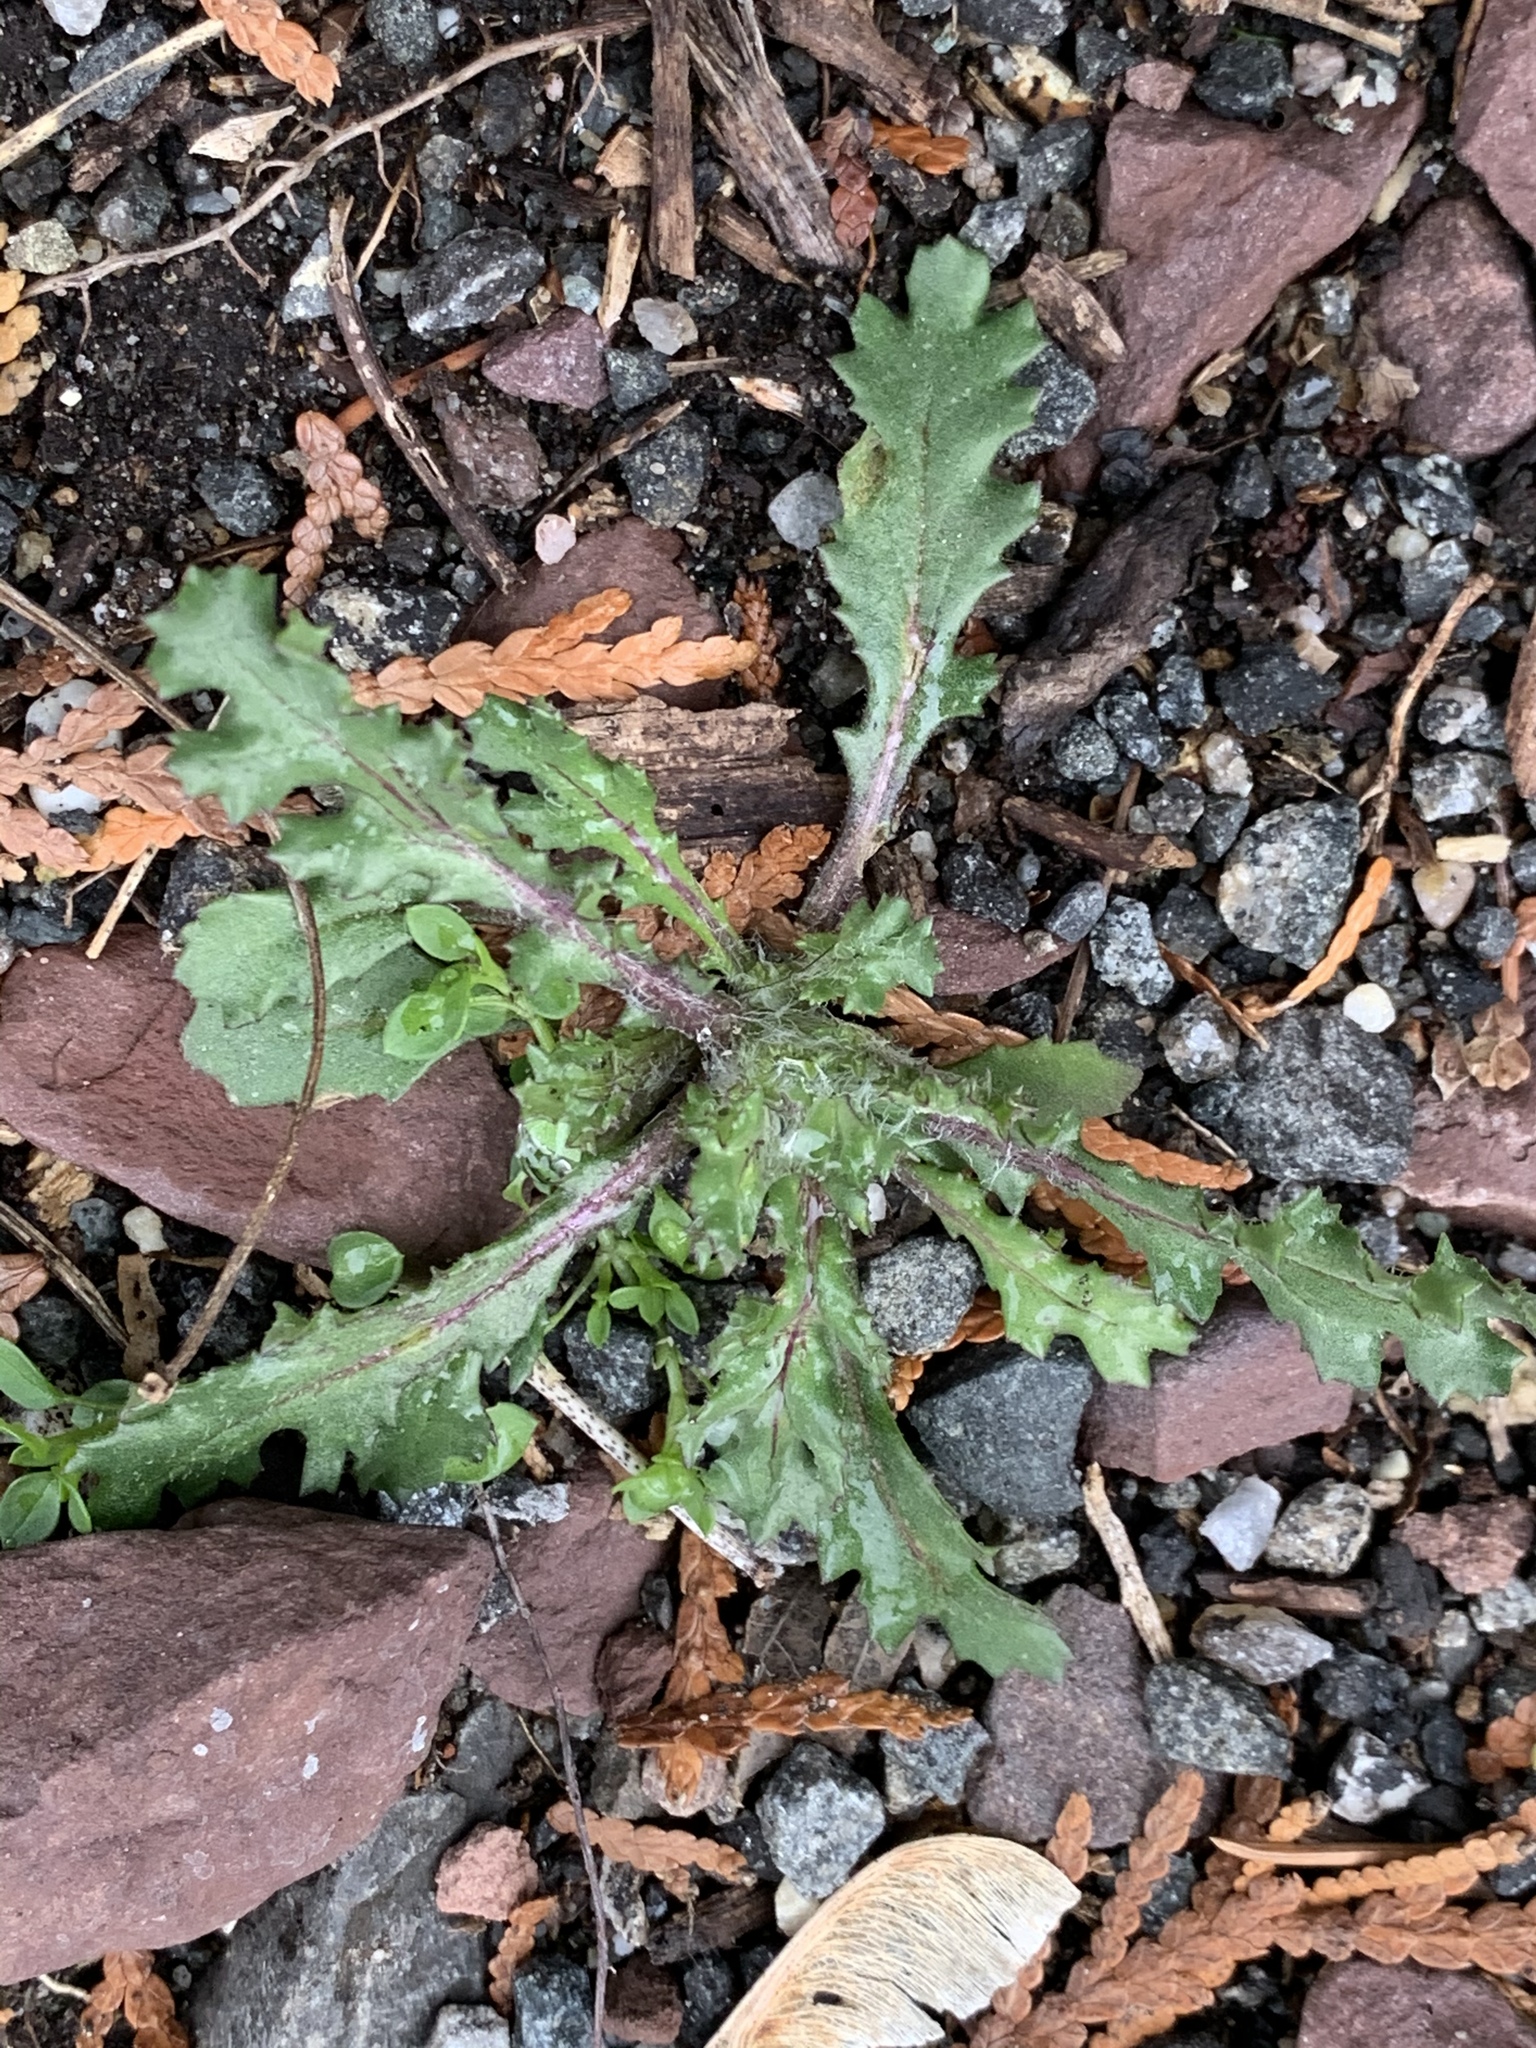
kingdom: Plantae
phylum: Tracheophyta
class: Magnoliopsida
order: Asterales
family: Asteraceae
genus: Senecio
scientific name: Senecio vulgaris
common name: Old-man-in-the-spring
